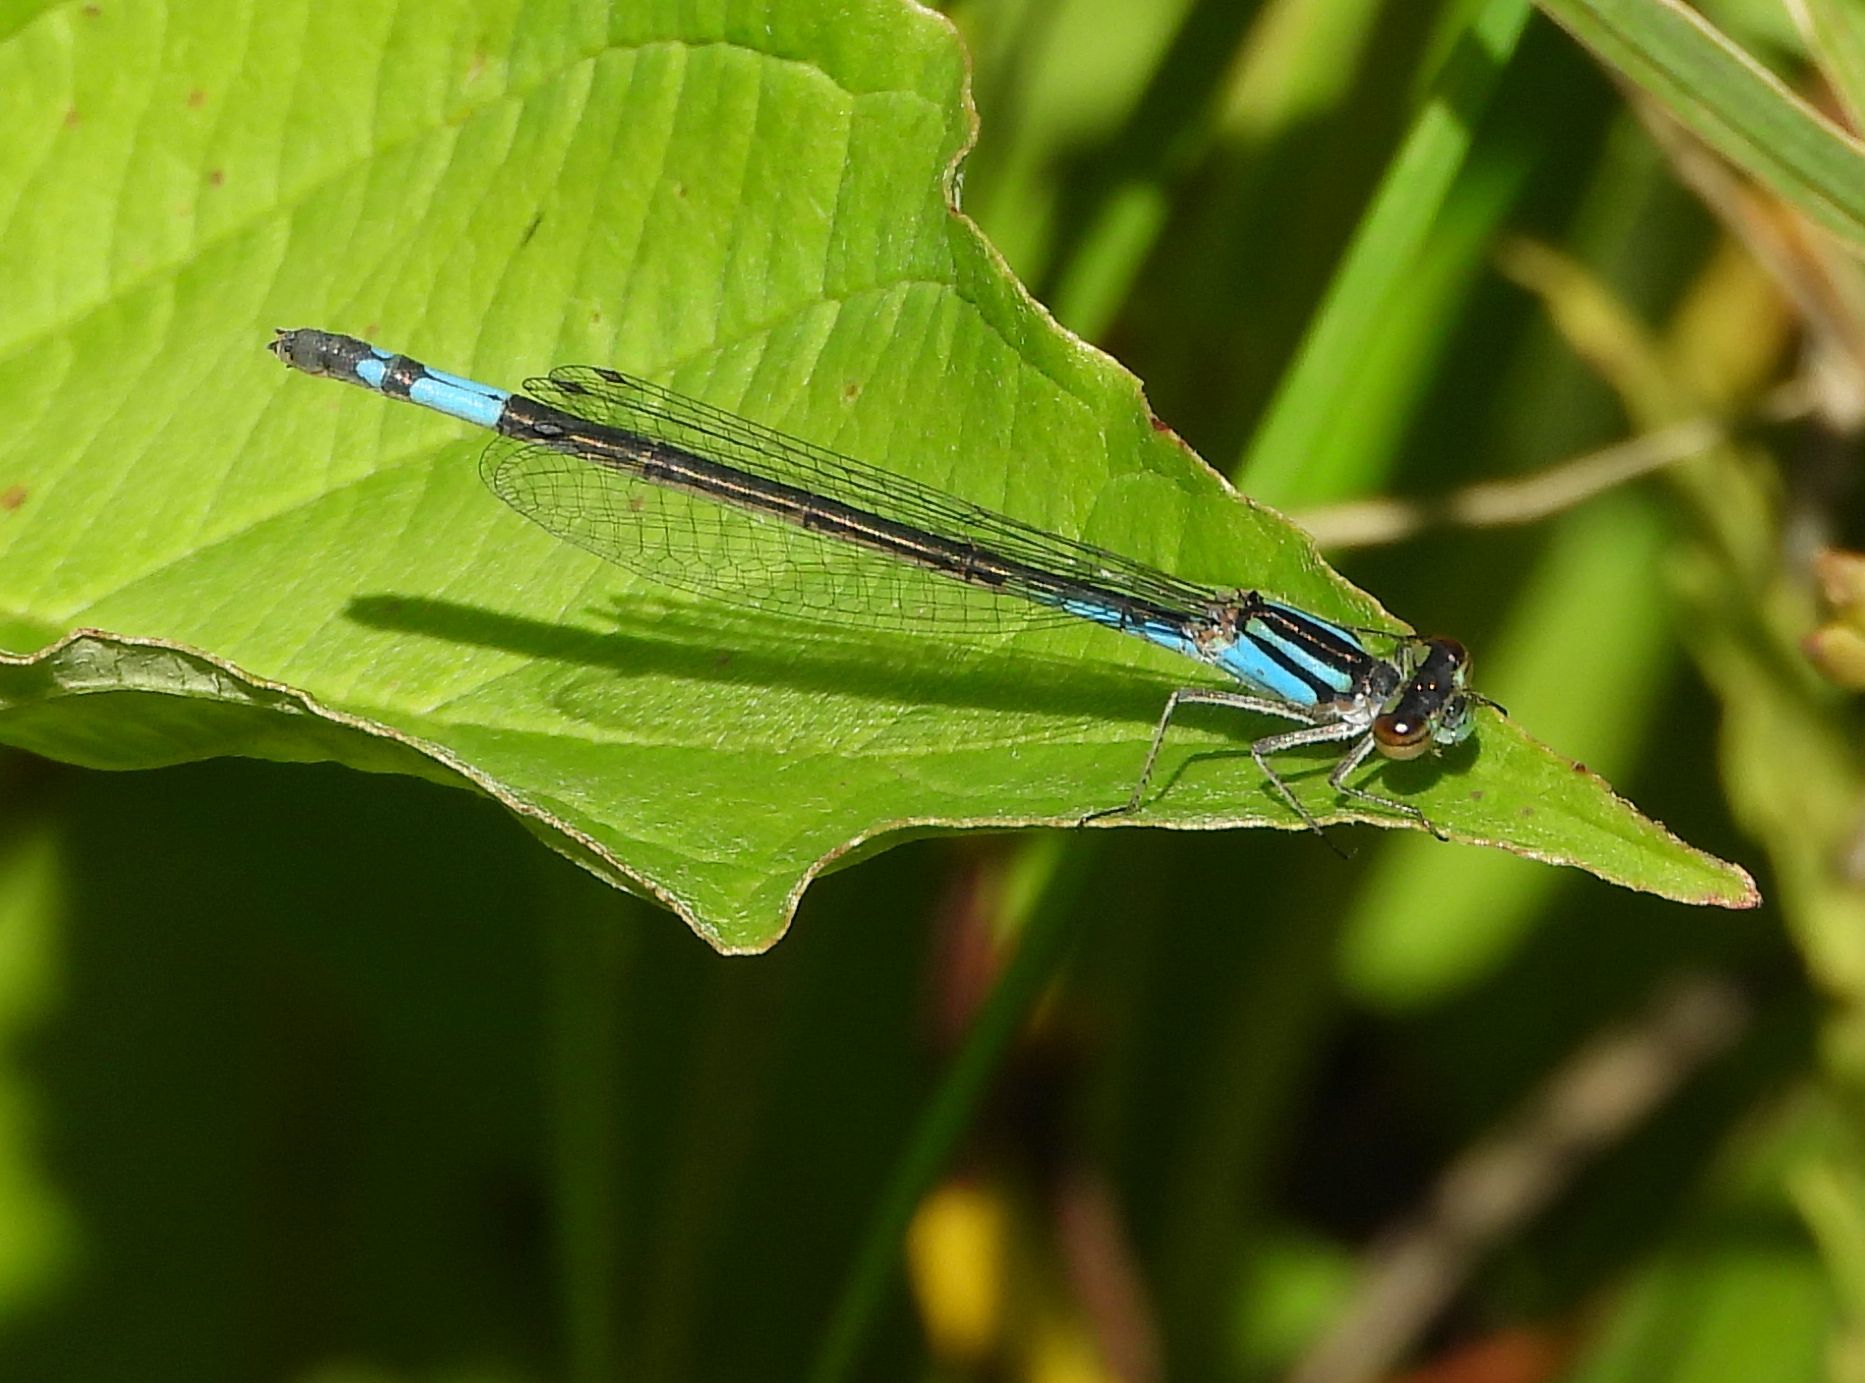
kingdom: Animalia
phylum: Arthropoda
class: Insecta
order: Odonata
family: Coenagrionidae
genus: Enallagma
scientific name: Enallagma aspersum
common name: Azure bluet
